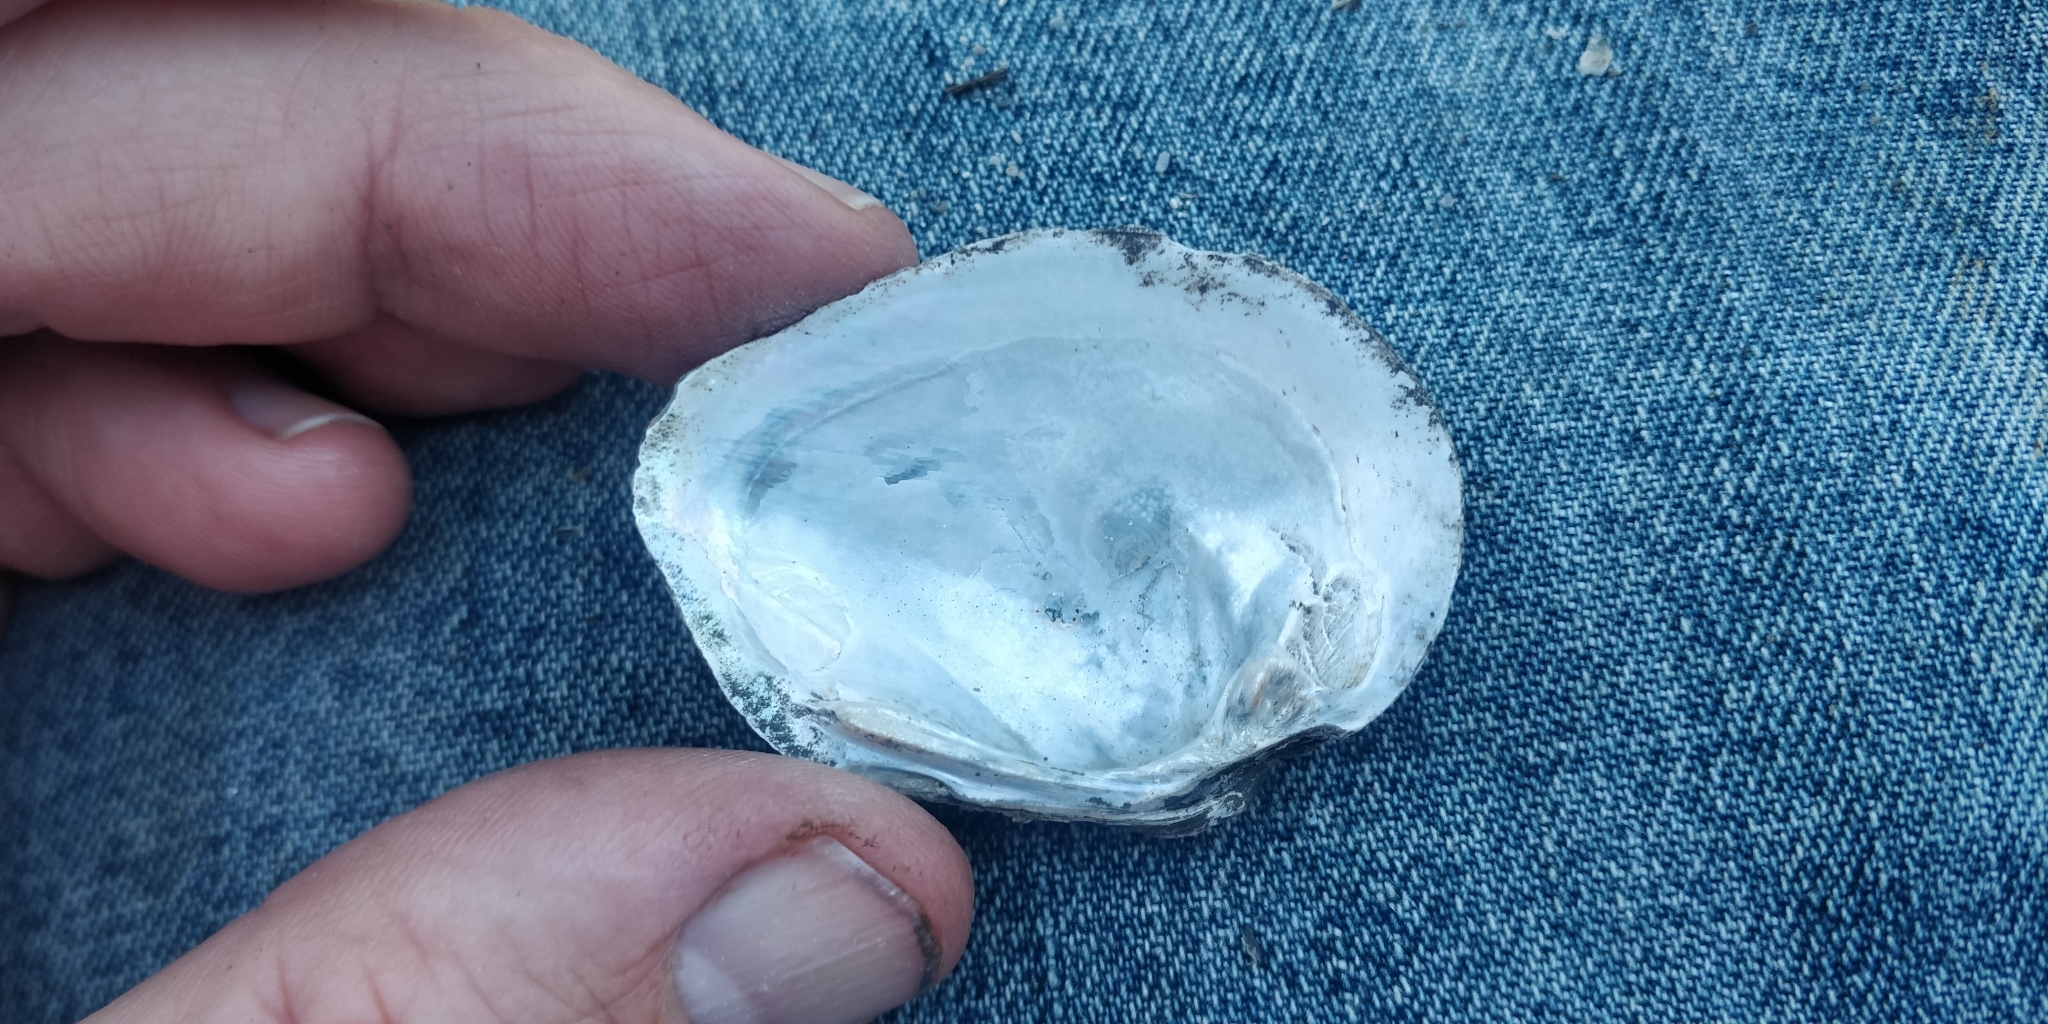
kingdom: Animalia
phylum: Mollusca
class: Bivalvia
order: Unionida
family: Unionidae
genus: Fusconaia
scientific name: Fusconaia flava
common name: Wabash pigtoe
